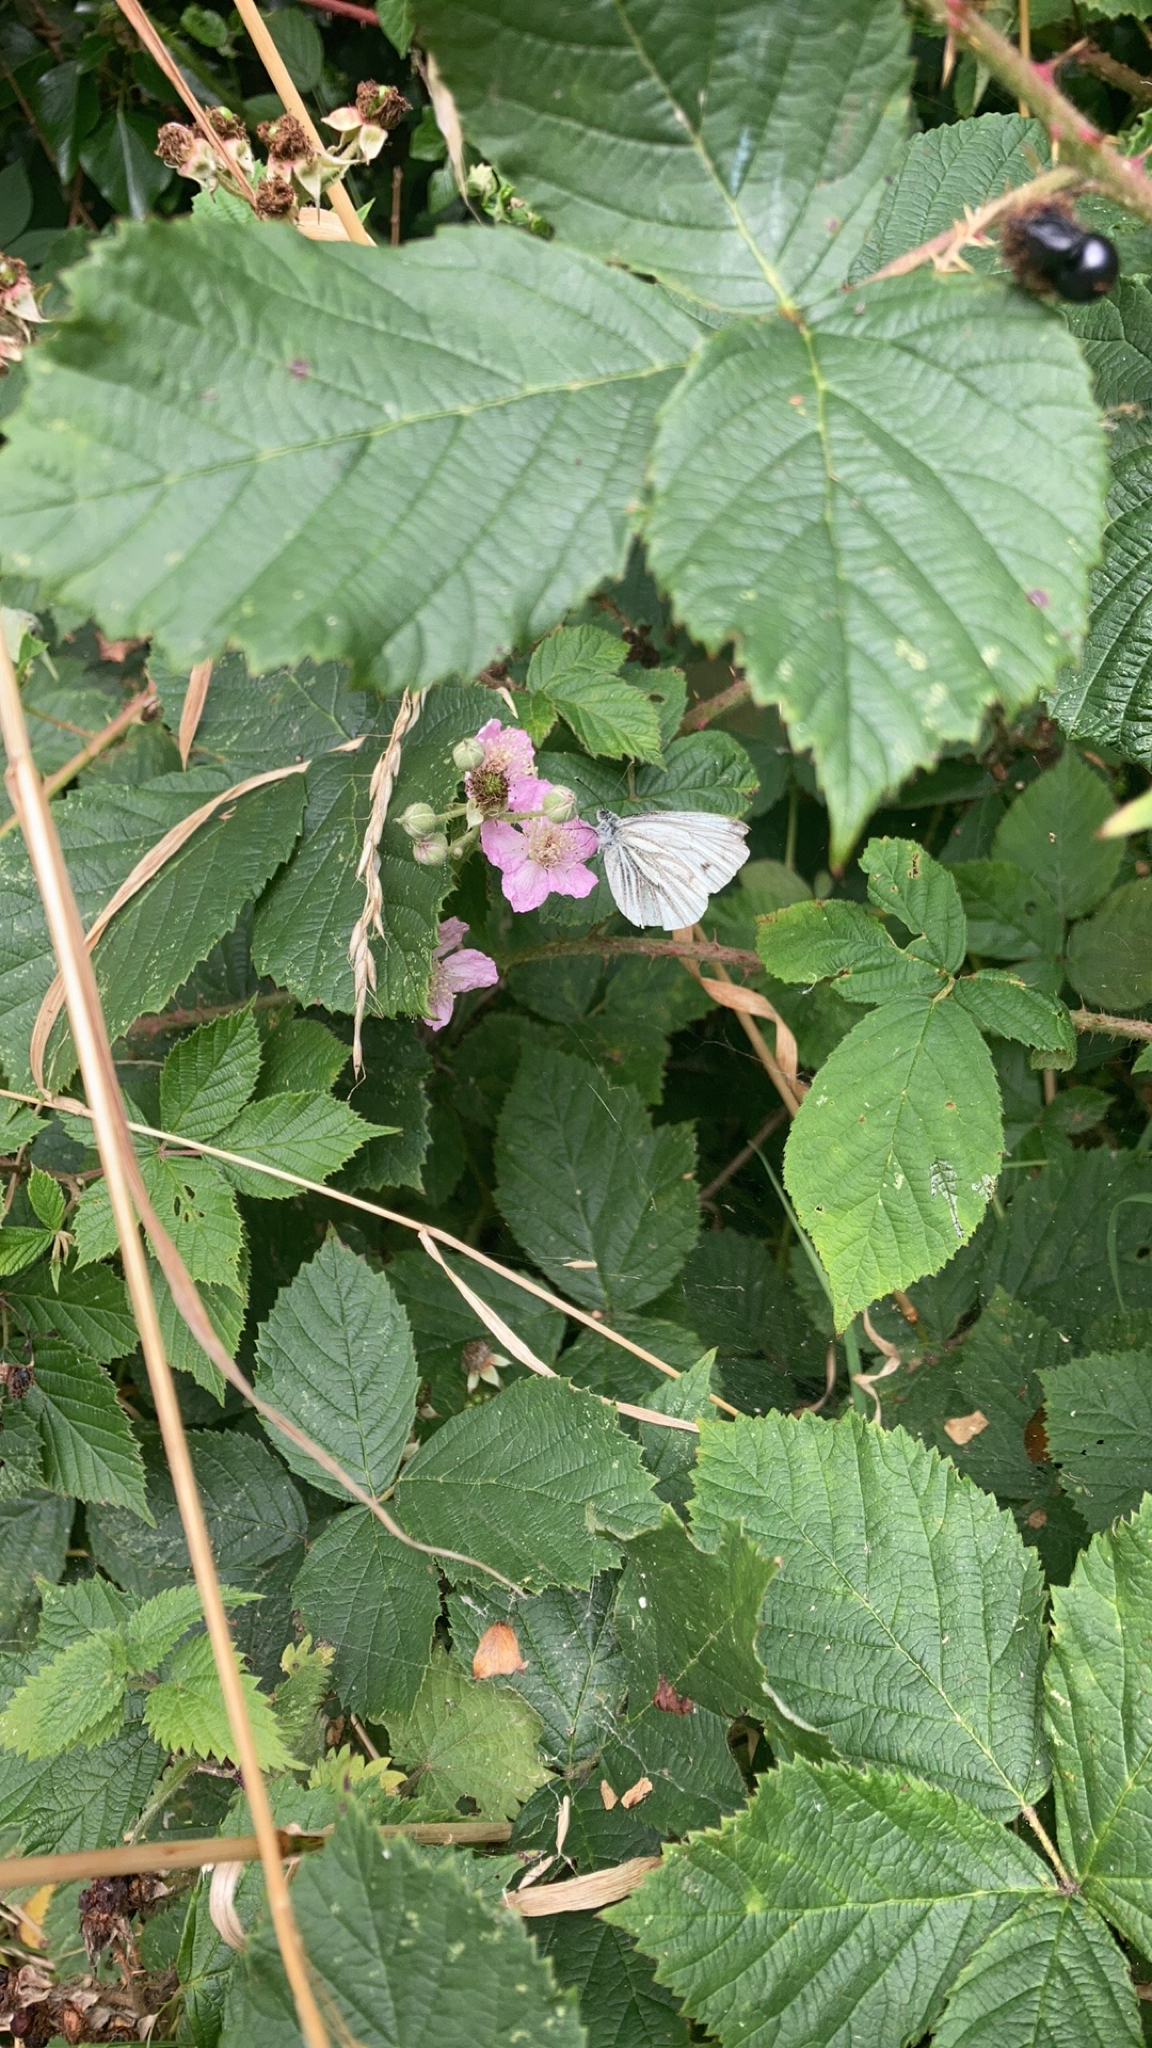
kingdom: Animalia
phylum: Arthropoda
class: Insecta
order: Lepidoptera
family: Pieridae
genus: Pieris
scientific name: Pieris napi
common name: Green-veined white
